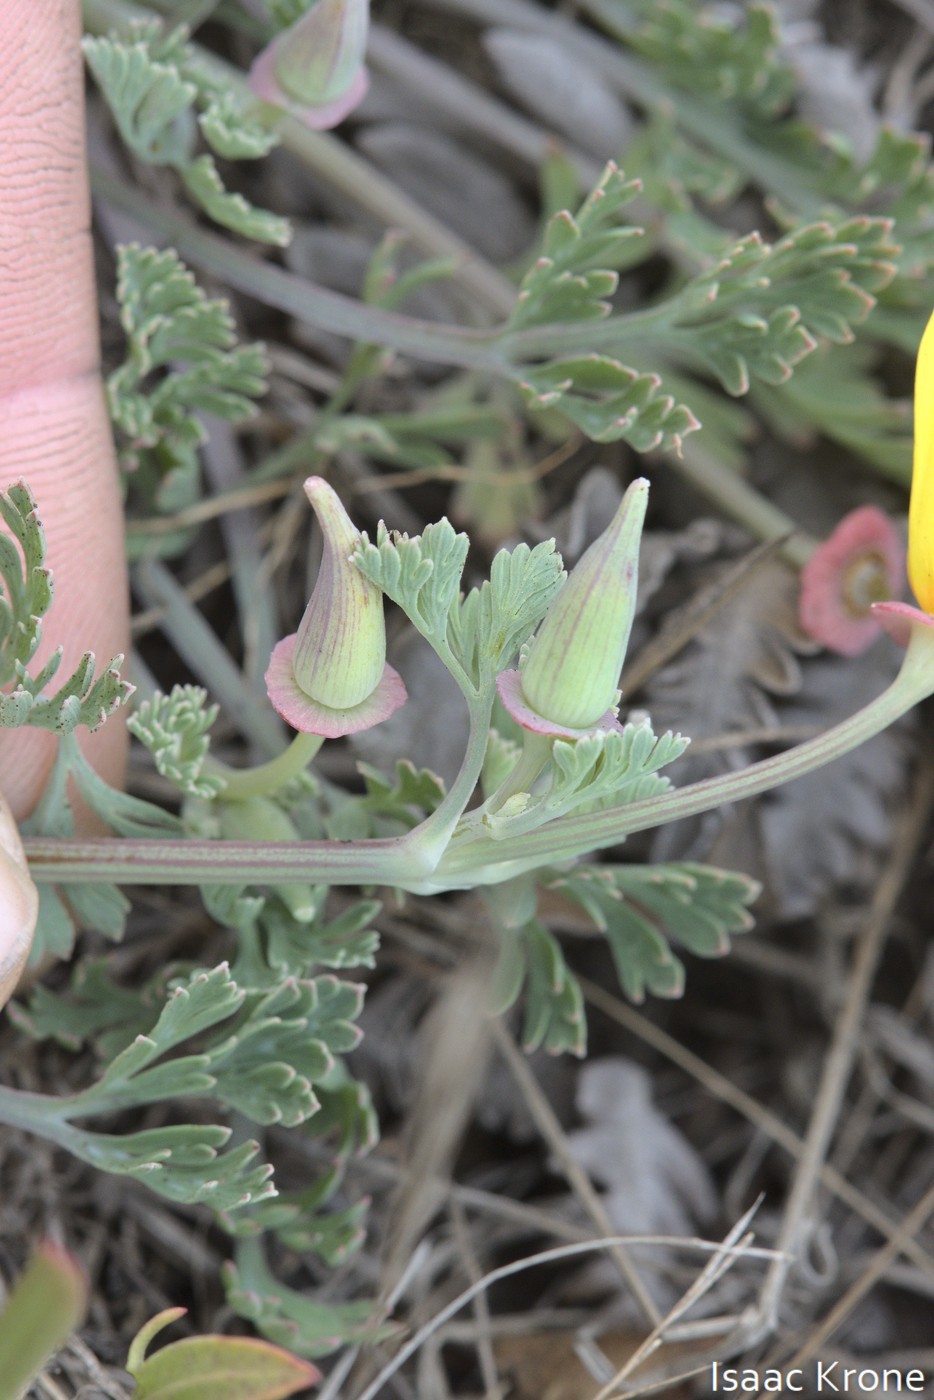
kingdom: Plantae
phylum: Tracheophyta
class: Magnoliopsida
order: Ranunculales
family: Papaveraceae
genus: Eschscholzia
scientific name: Eschscholzia californica
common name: California poppy
